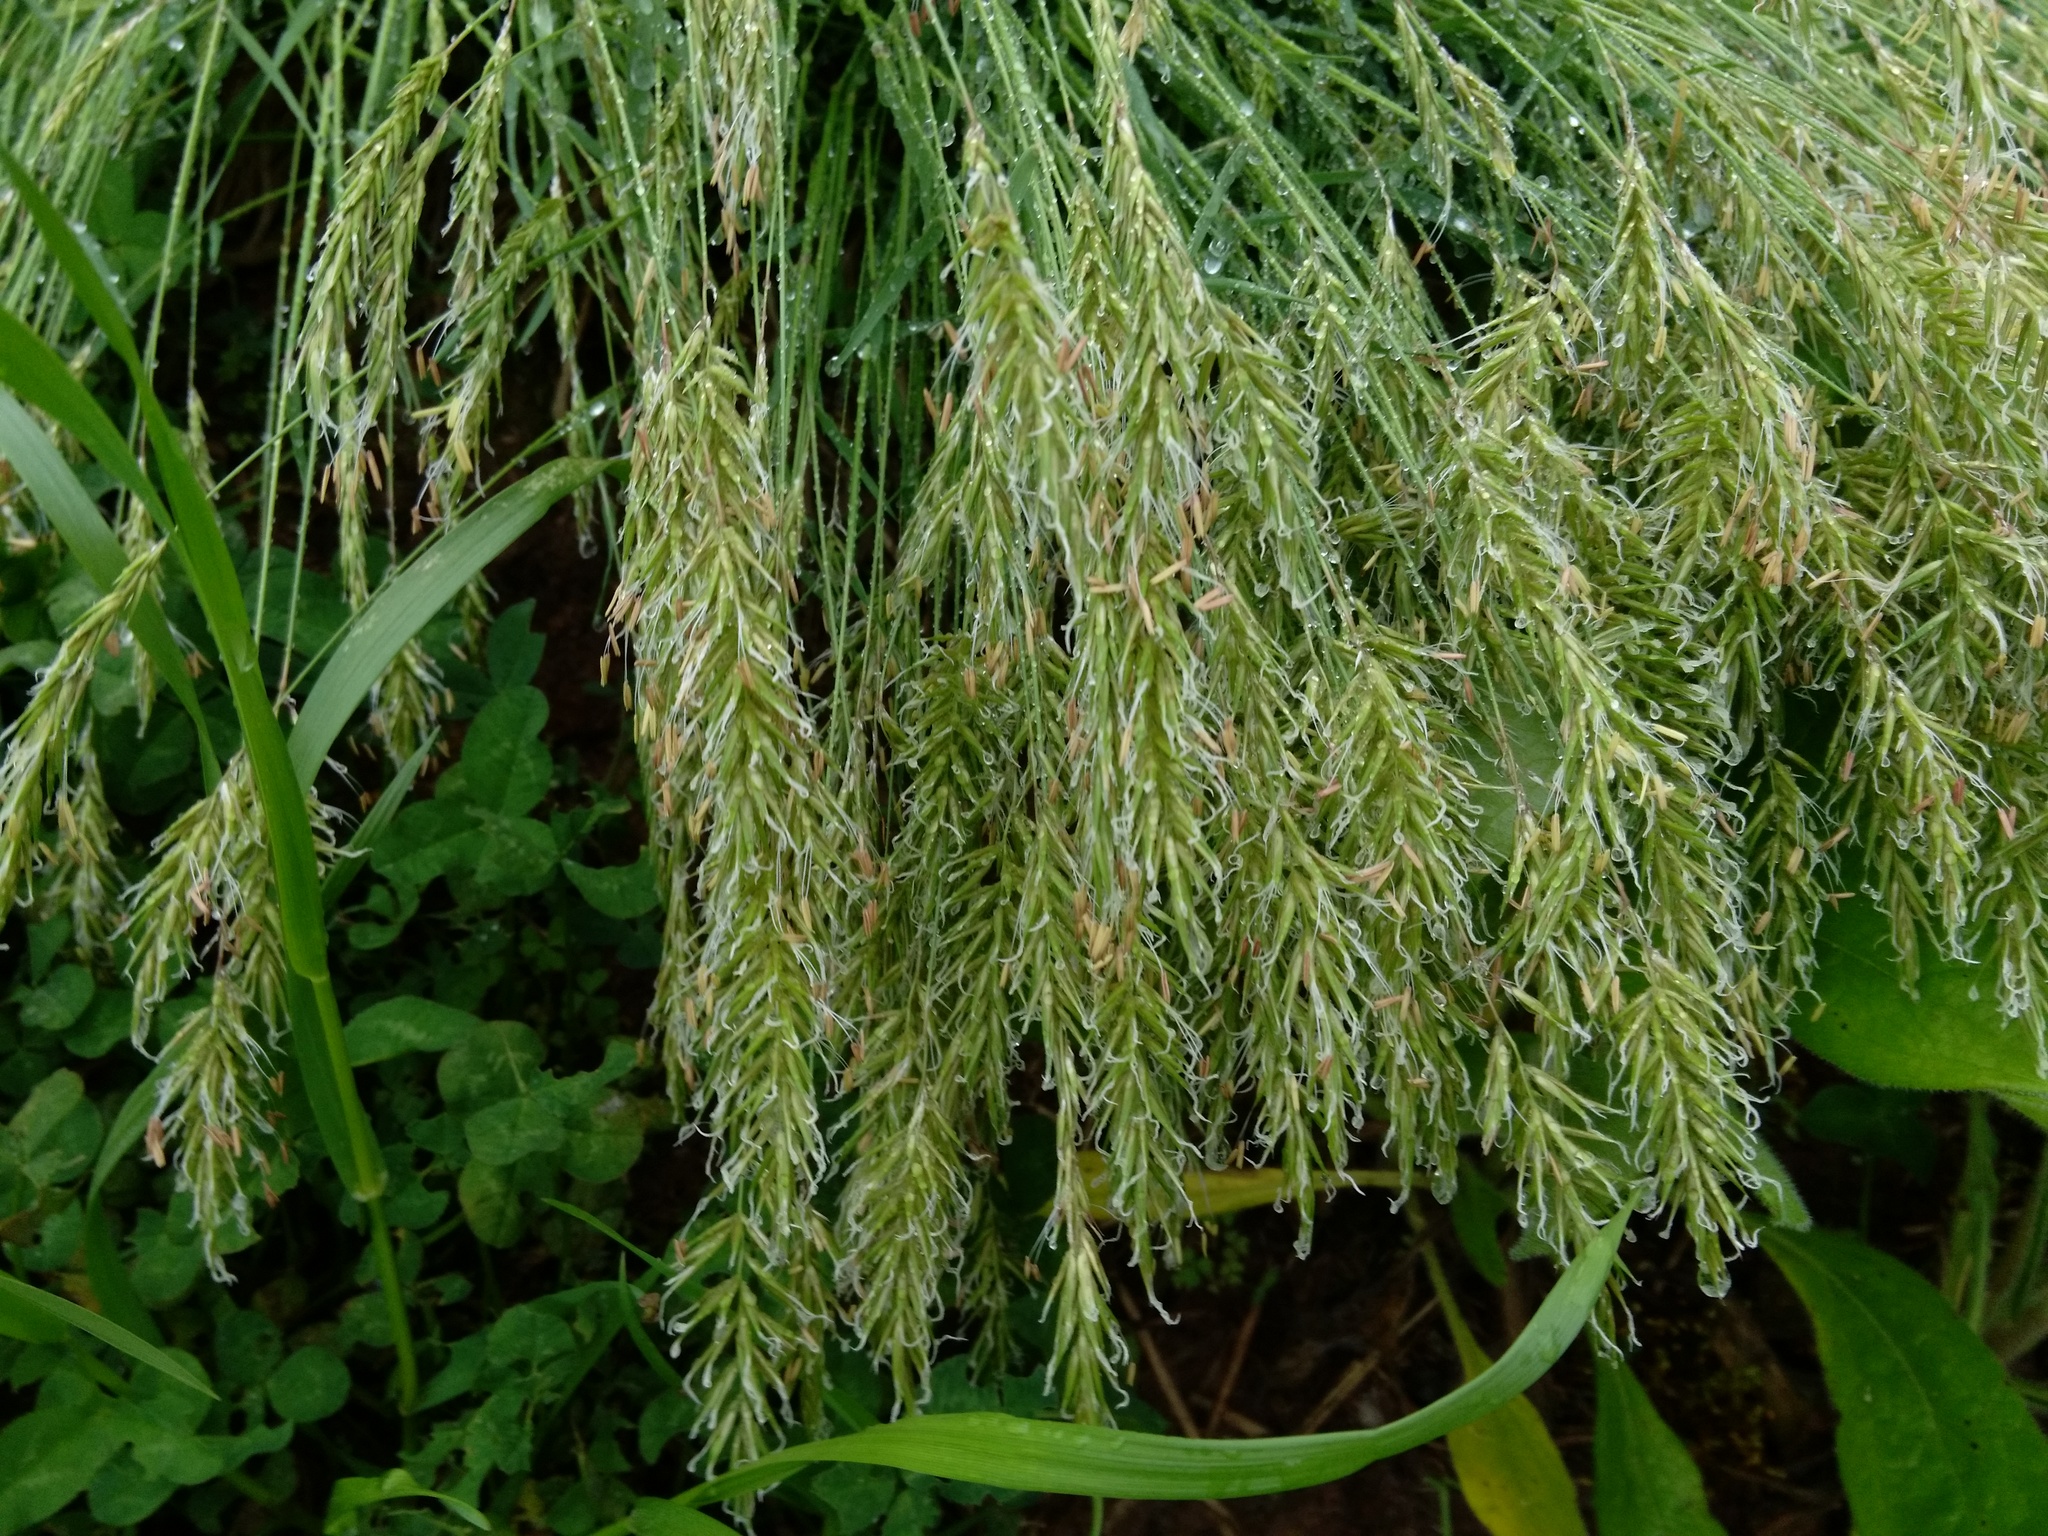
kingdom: Plantae
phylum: Tracheophyta
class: Liliopsida
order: Poales
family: Poaceae
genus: Anthoxanthum
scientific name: Anthoxanthum odoratum
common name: Sweet vernalgrass
